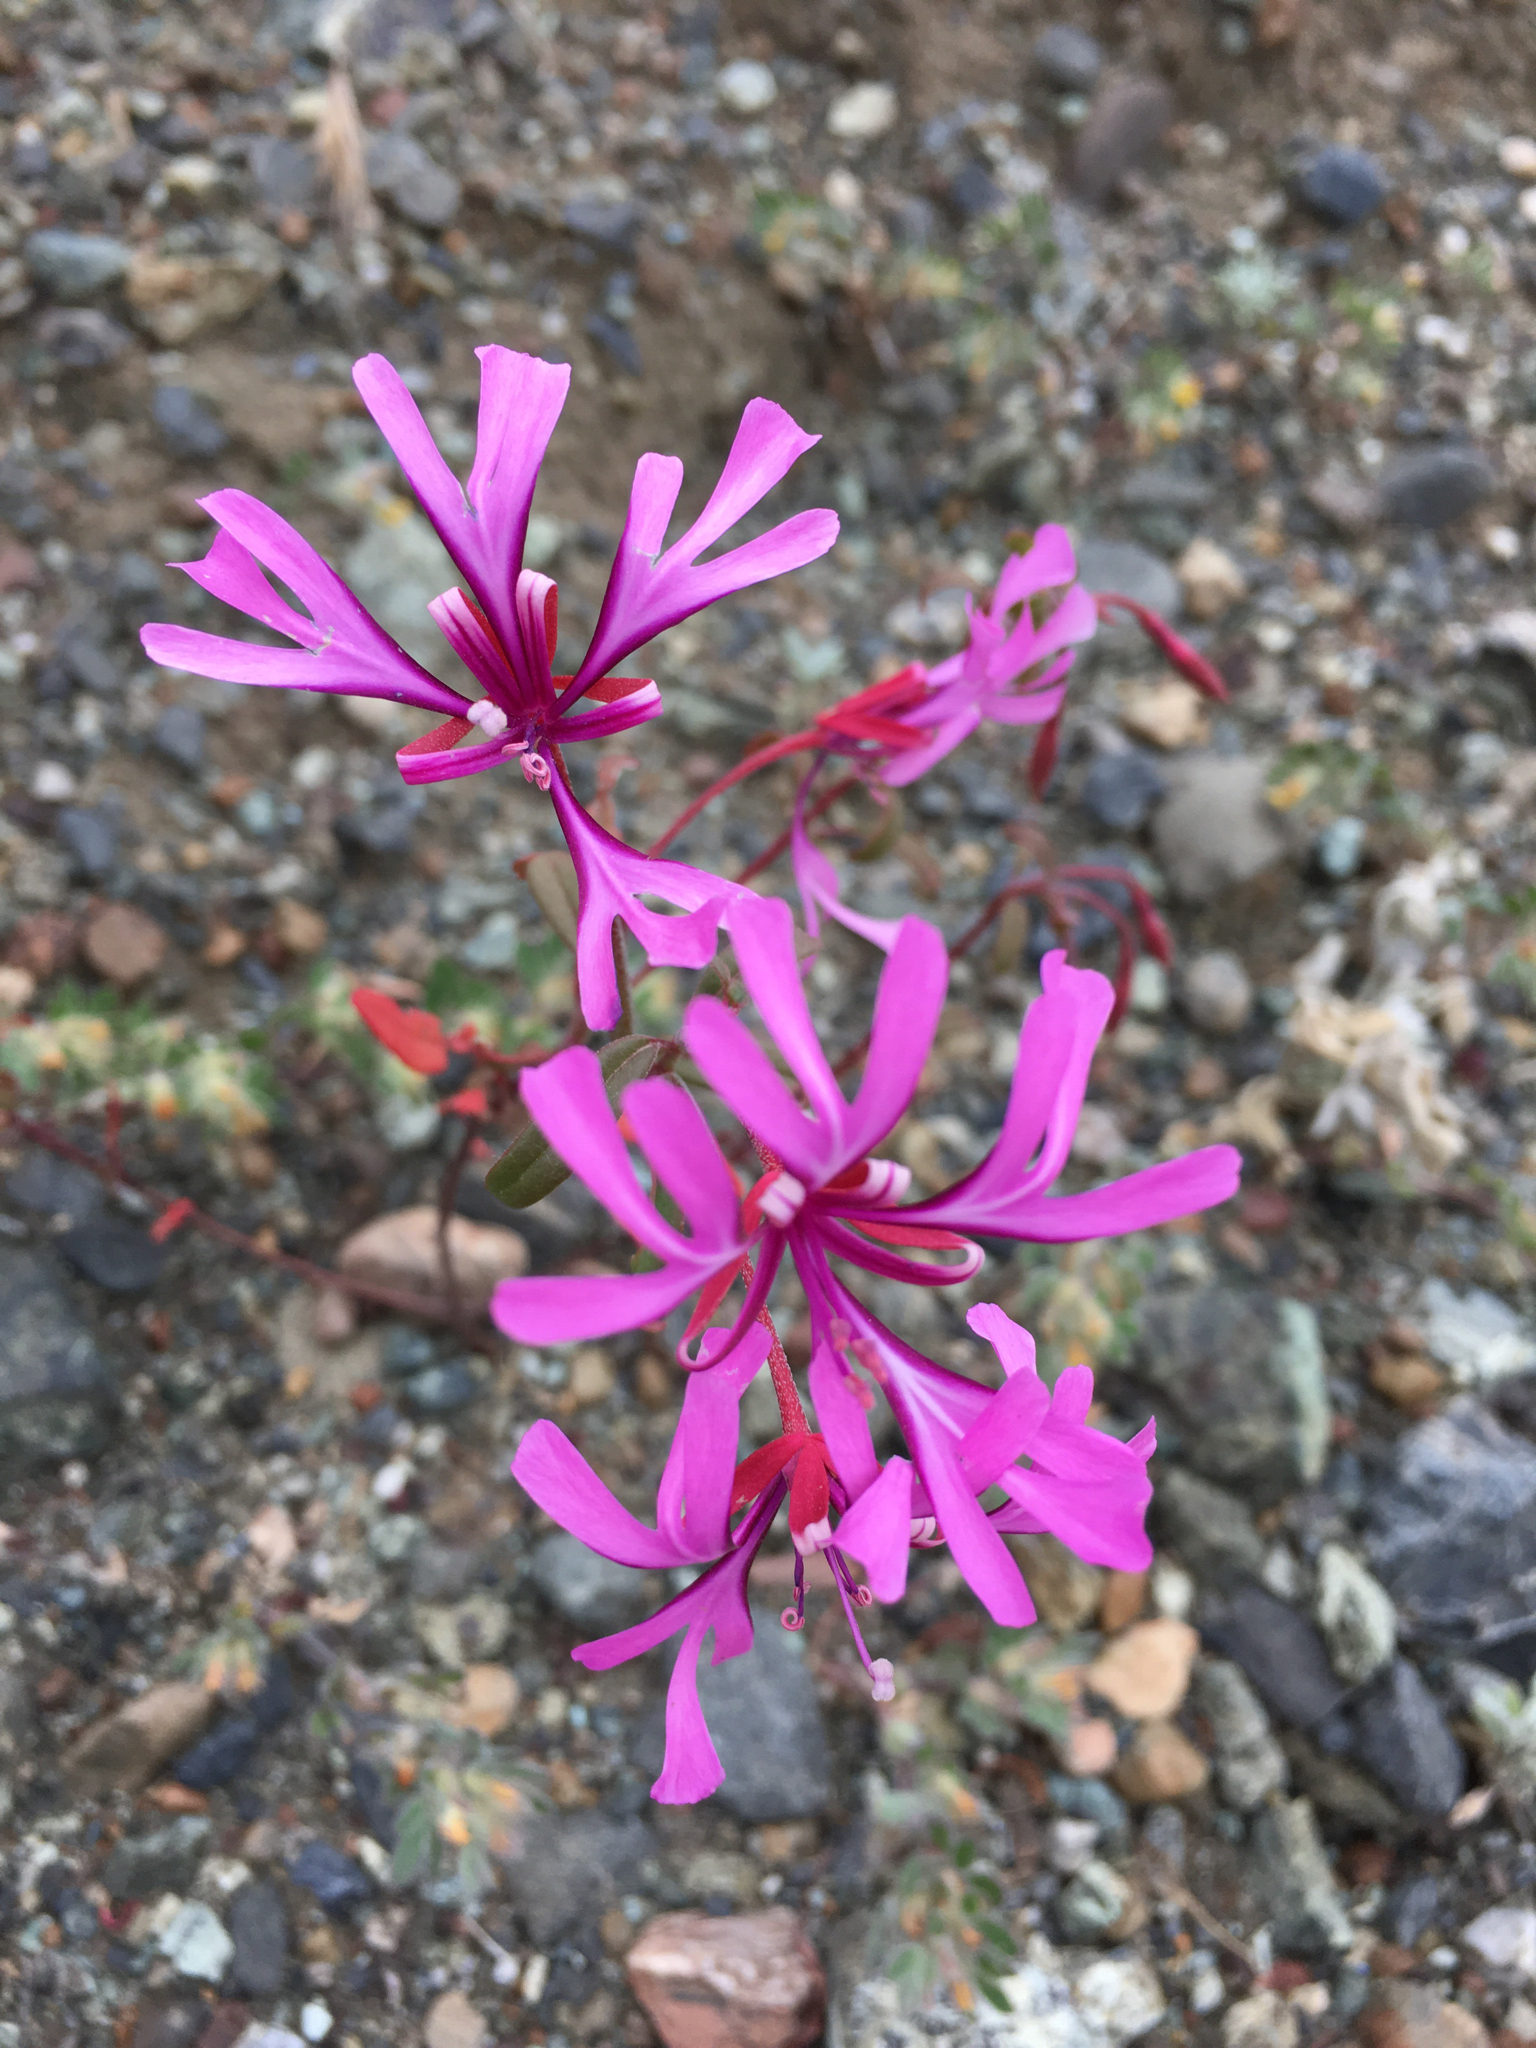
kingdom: Plantae
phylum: Tracheophyta
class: Magnoliopsida
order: Myrtales
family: Onagraceae
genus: Clarkia
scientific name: Clarkia concinna
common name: Red-ribbons
